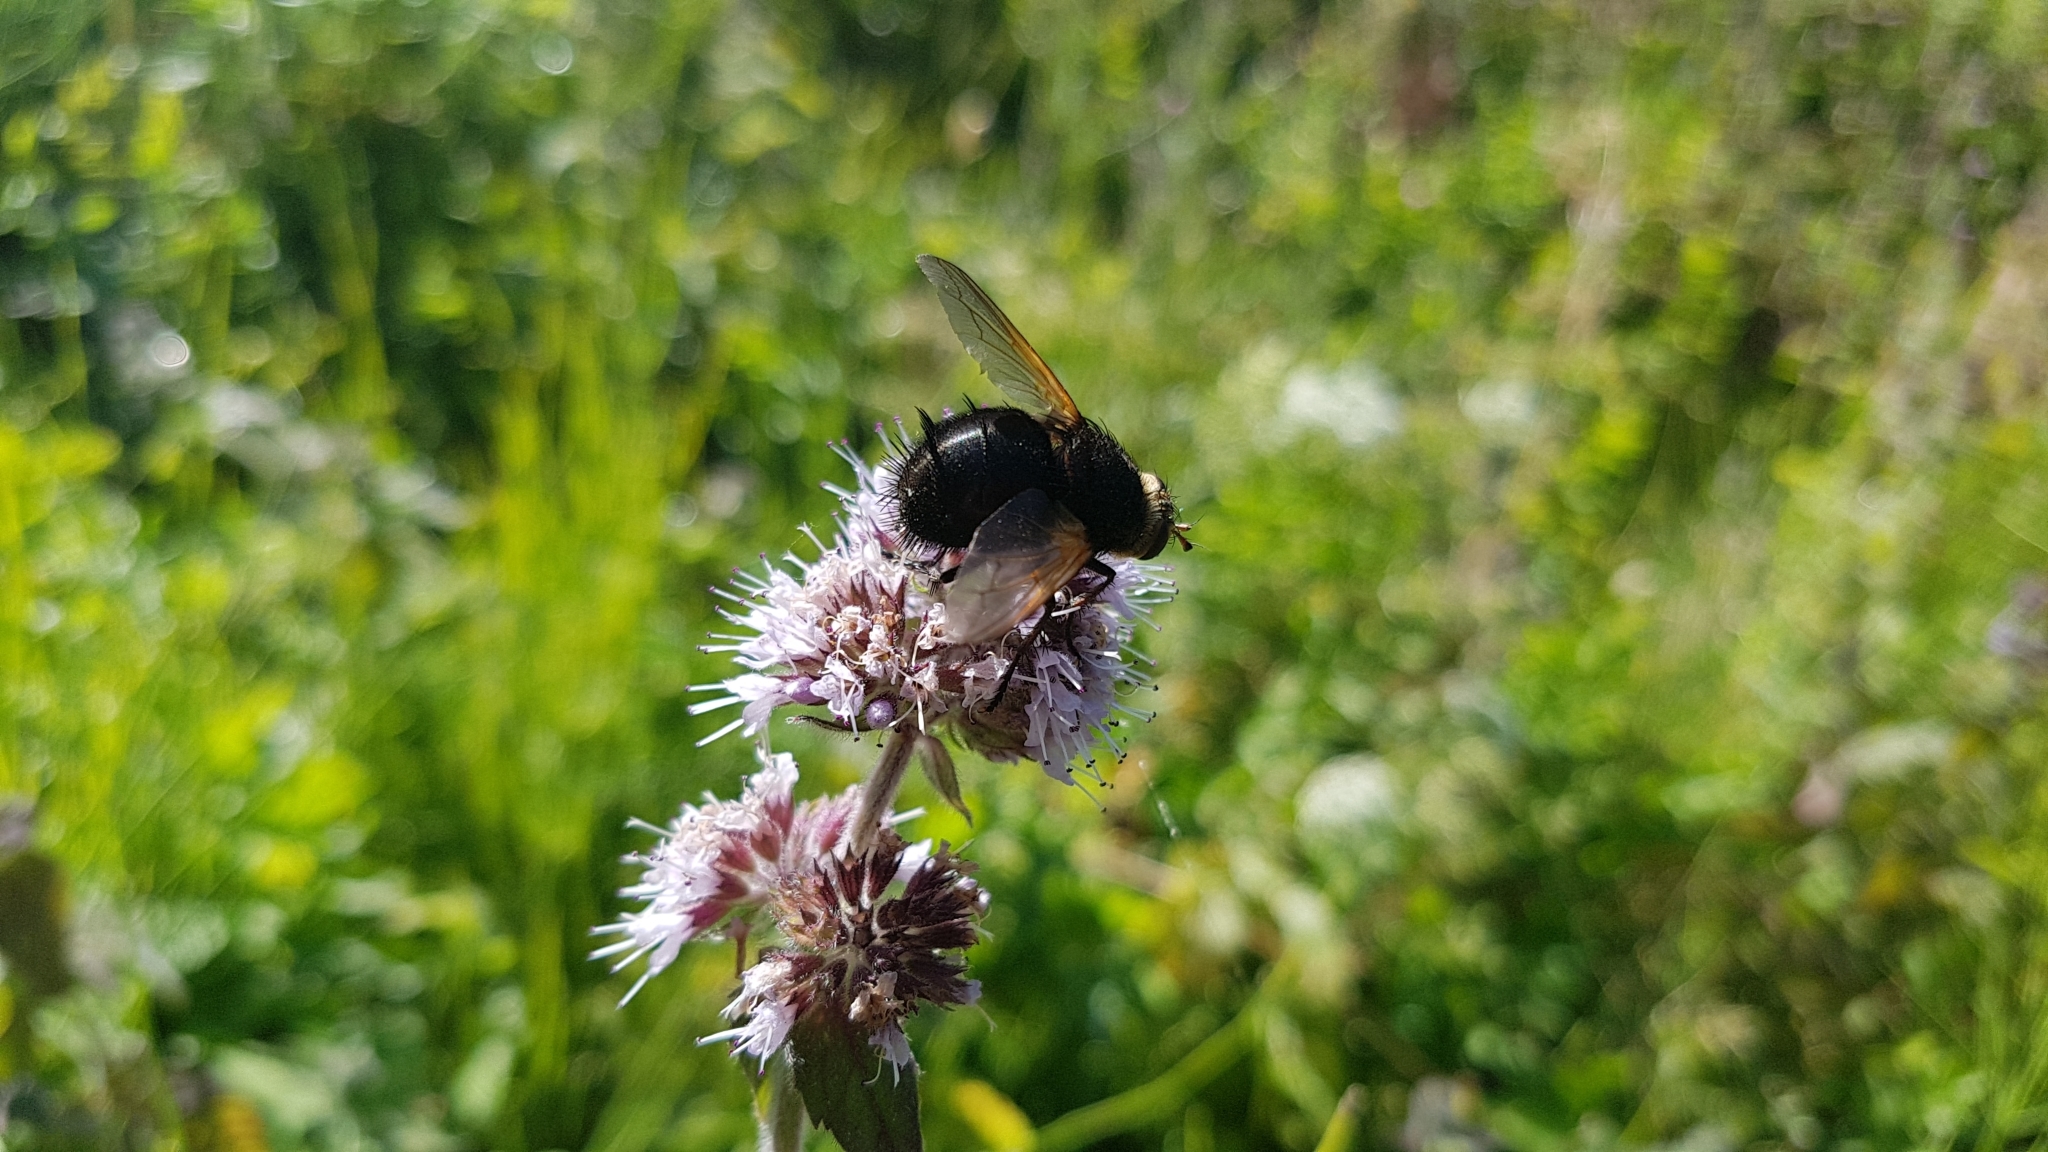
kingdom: Animalia
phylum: Arthropoda
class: Insecta
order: Diptera
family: Tachinidae
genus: Tachina
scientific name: Tachina grossa
